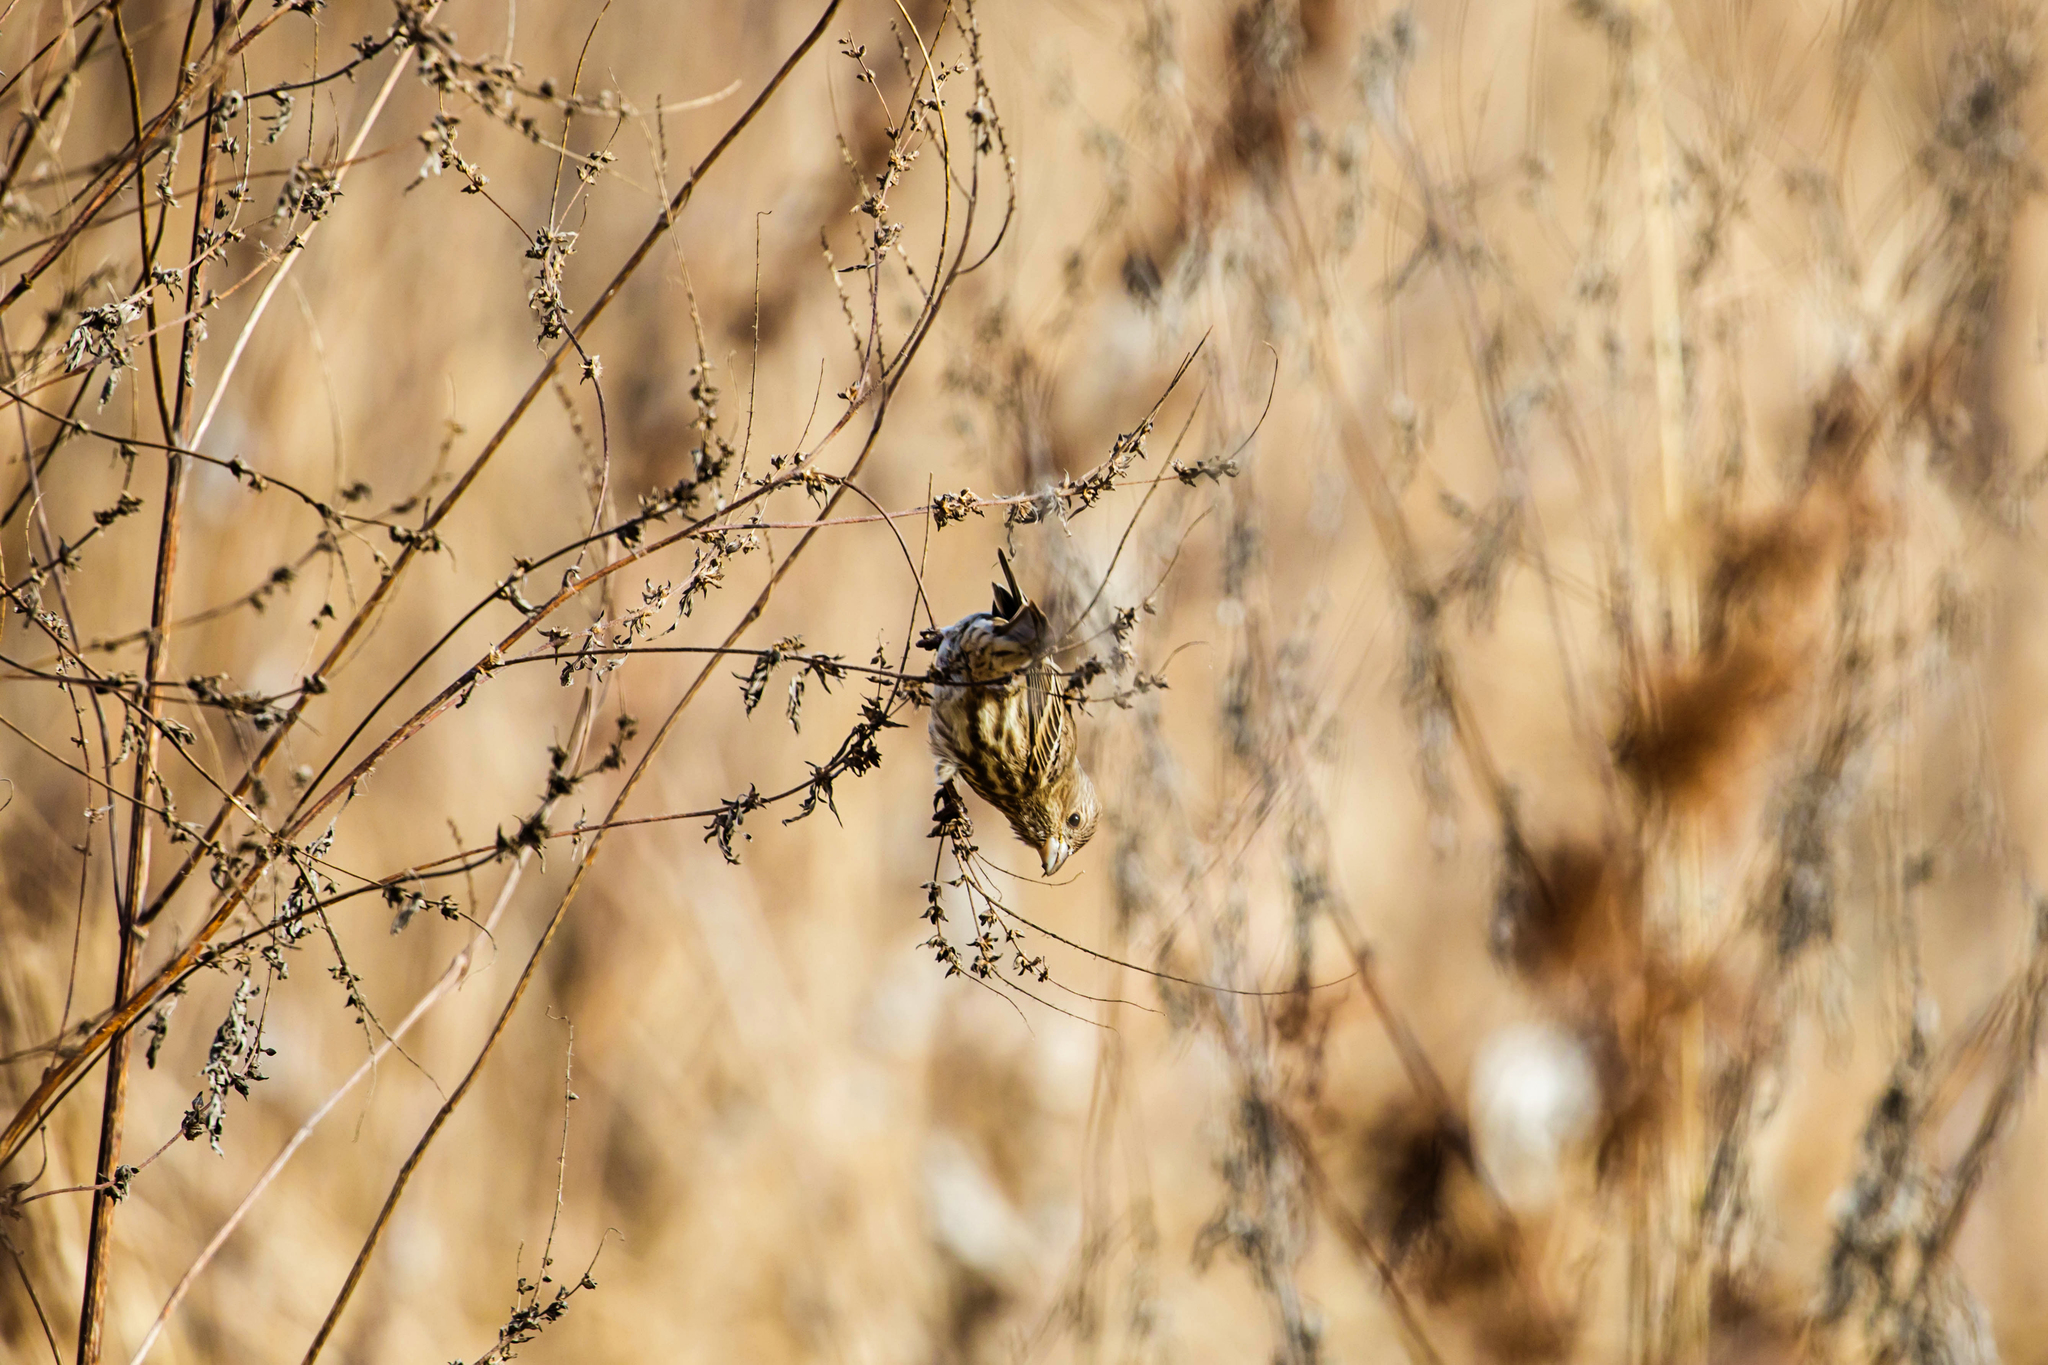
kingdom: Animalia
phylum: Chordata
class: Aves
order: Passeriformes
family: Fringillidae
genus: Haemorhous
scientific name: Haemorhous mexicanus
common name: House finch
